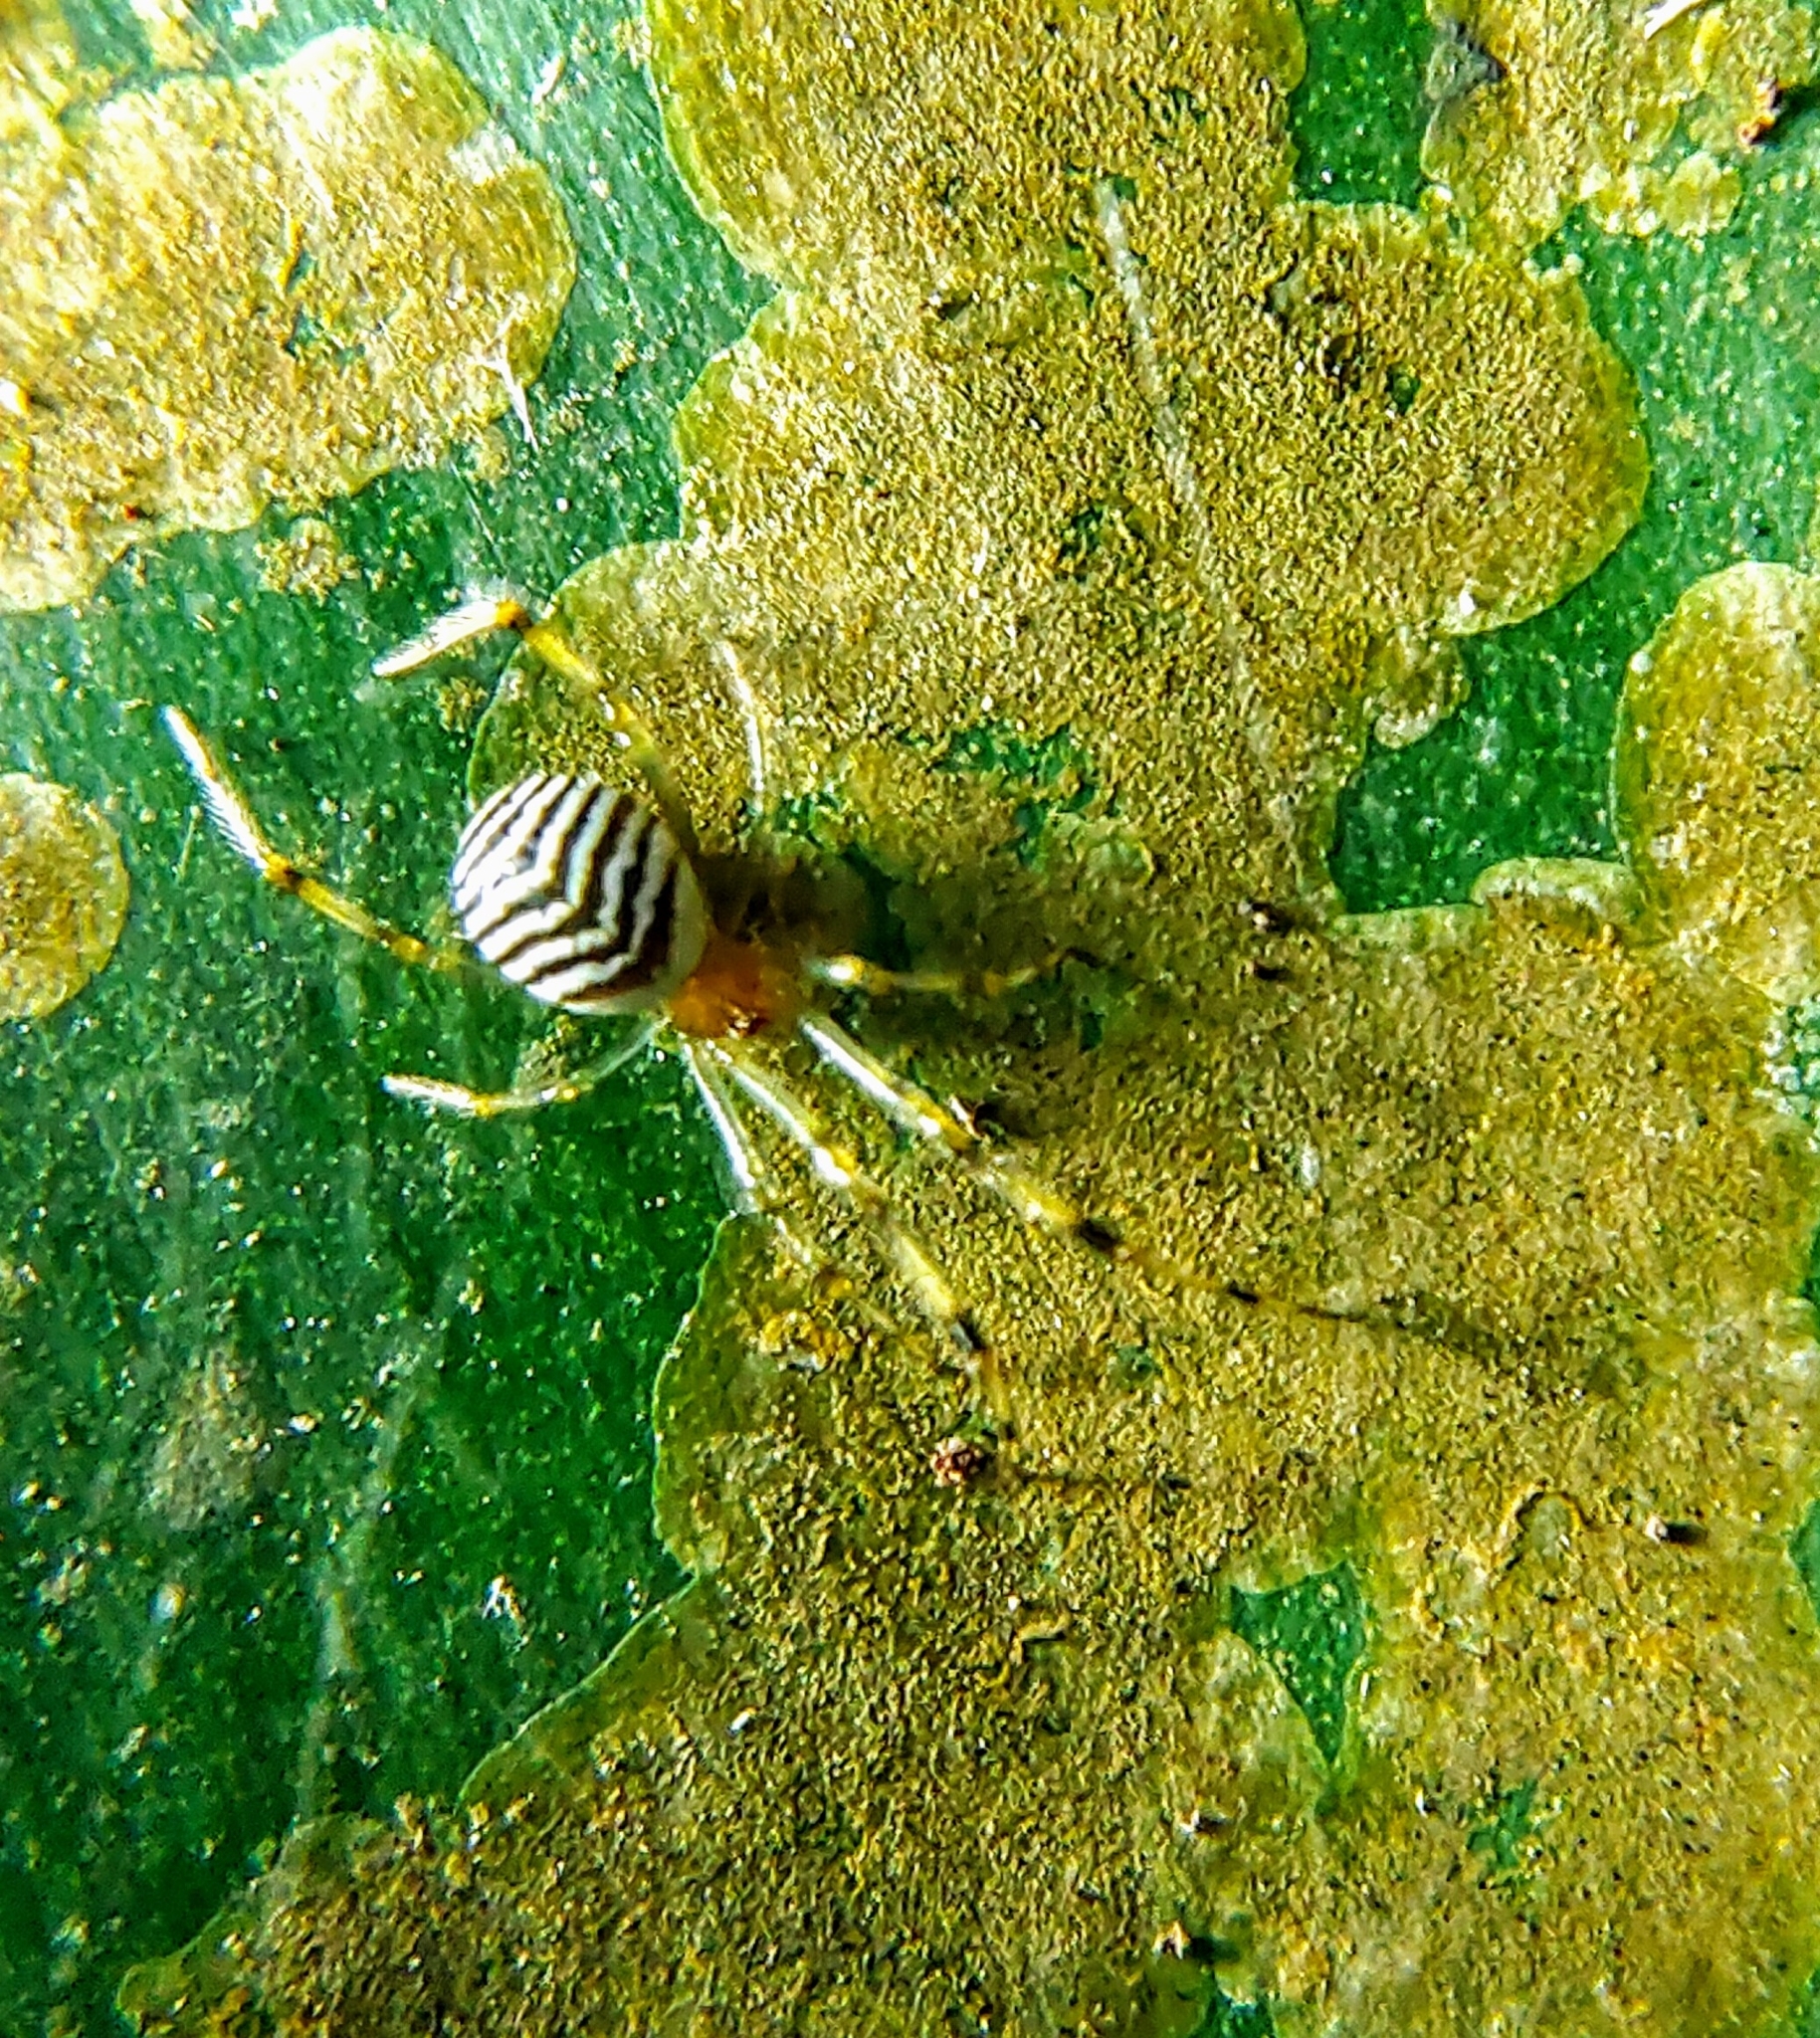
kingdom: Animalia
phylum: Arthropoda
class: Arachnida
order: Araneae
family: Theridiidae
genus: Theridion
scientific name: Theridion zonulatum
